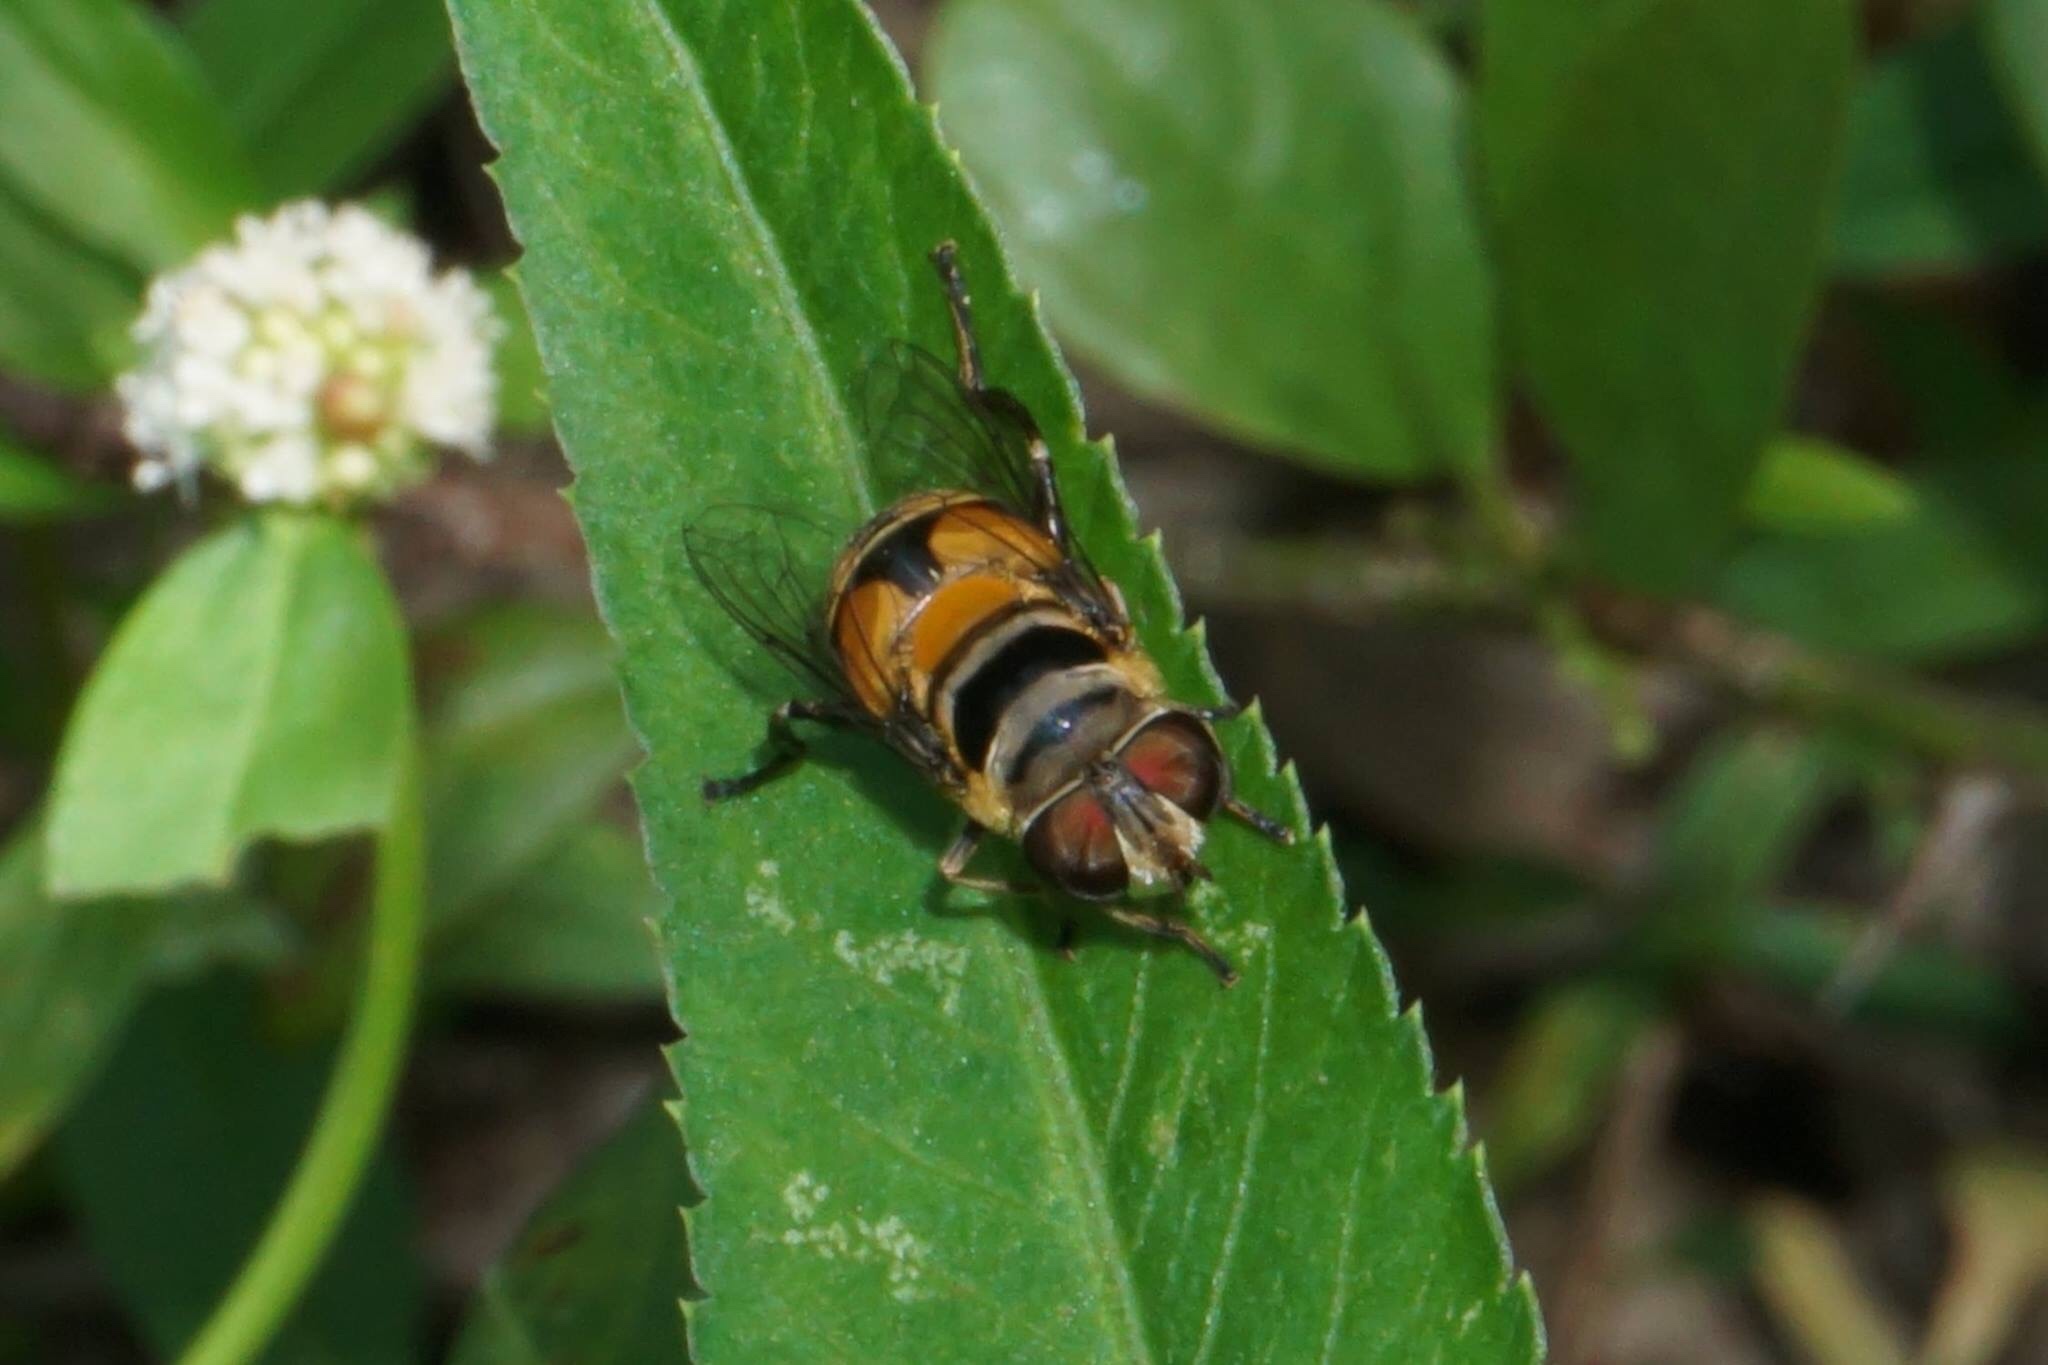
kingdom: Animalia
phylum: Arthropoda
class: Insecta
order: Diptera
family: Syrphidae
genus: Palpada
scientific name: Palpada agrorum
